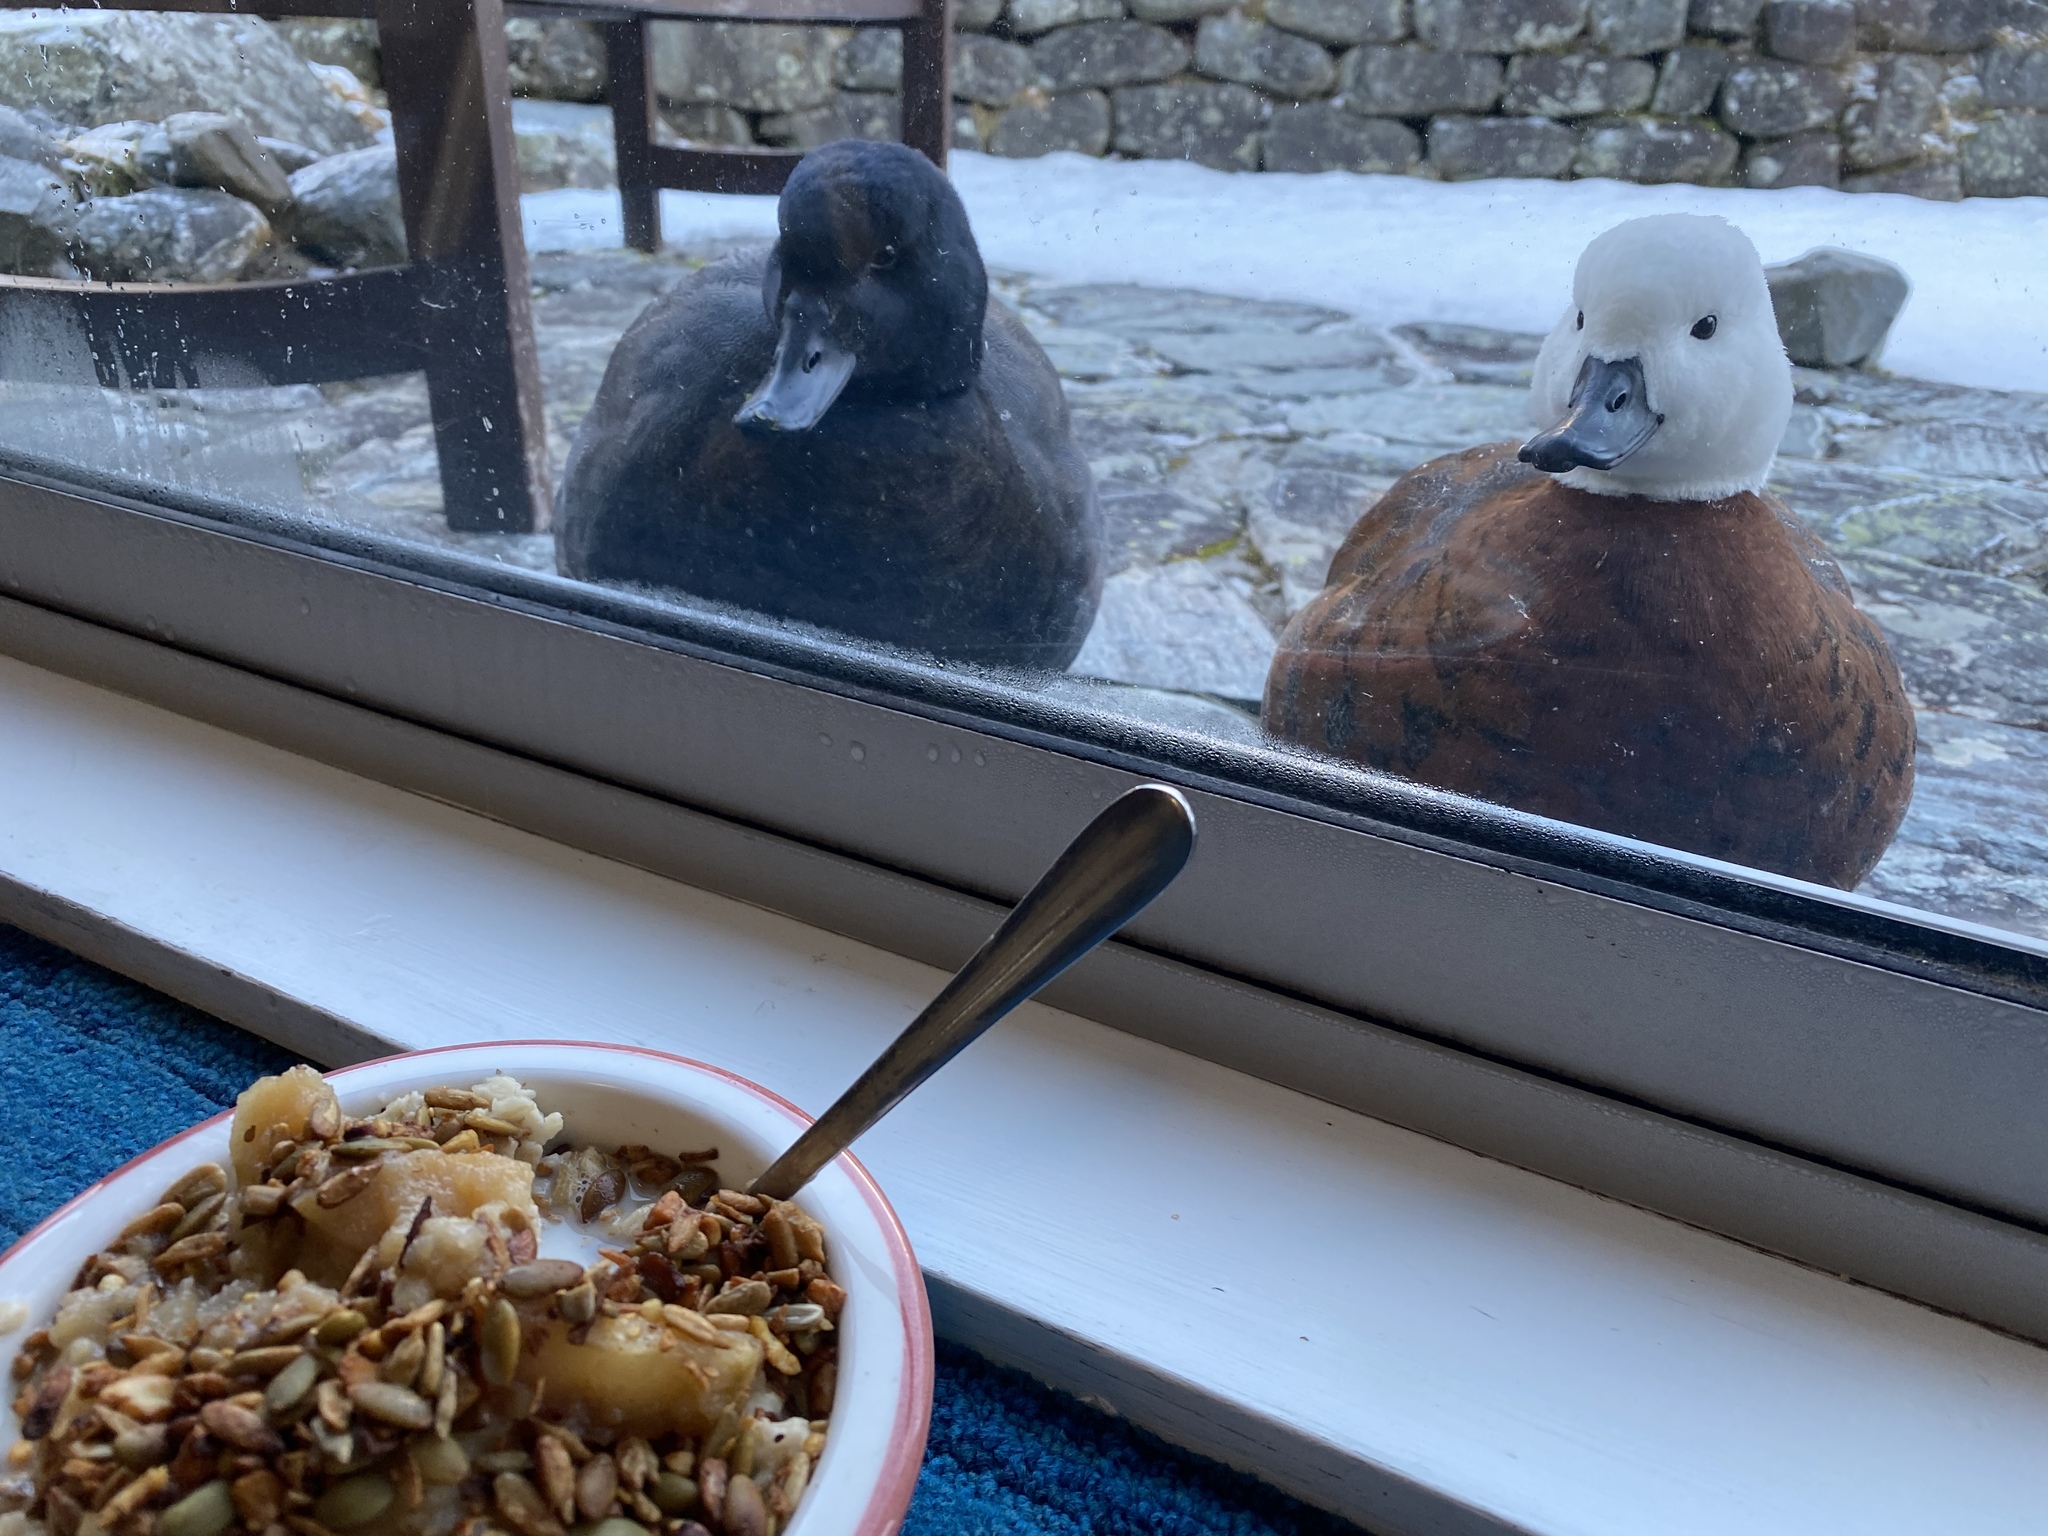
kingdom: Animalia
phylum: Chordata
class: Aves
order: Anseriformes
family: Anatidae
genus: Tadorna
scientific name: Tadorna variegata
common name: Paradise shelduck
